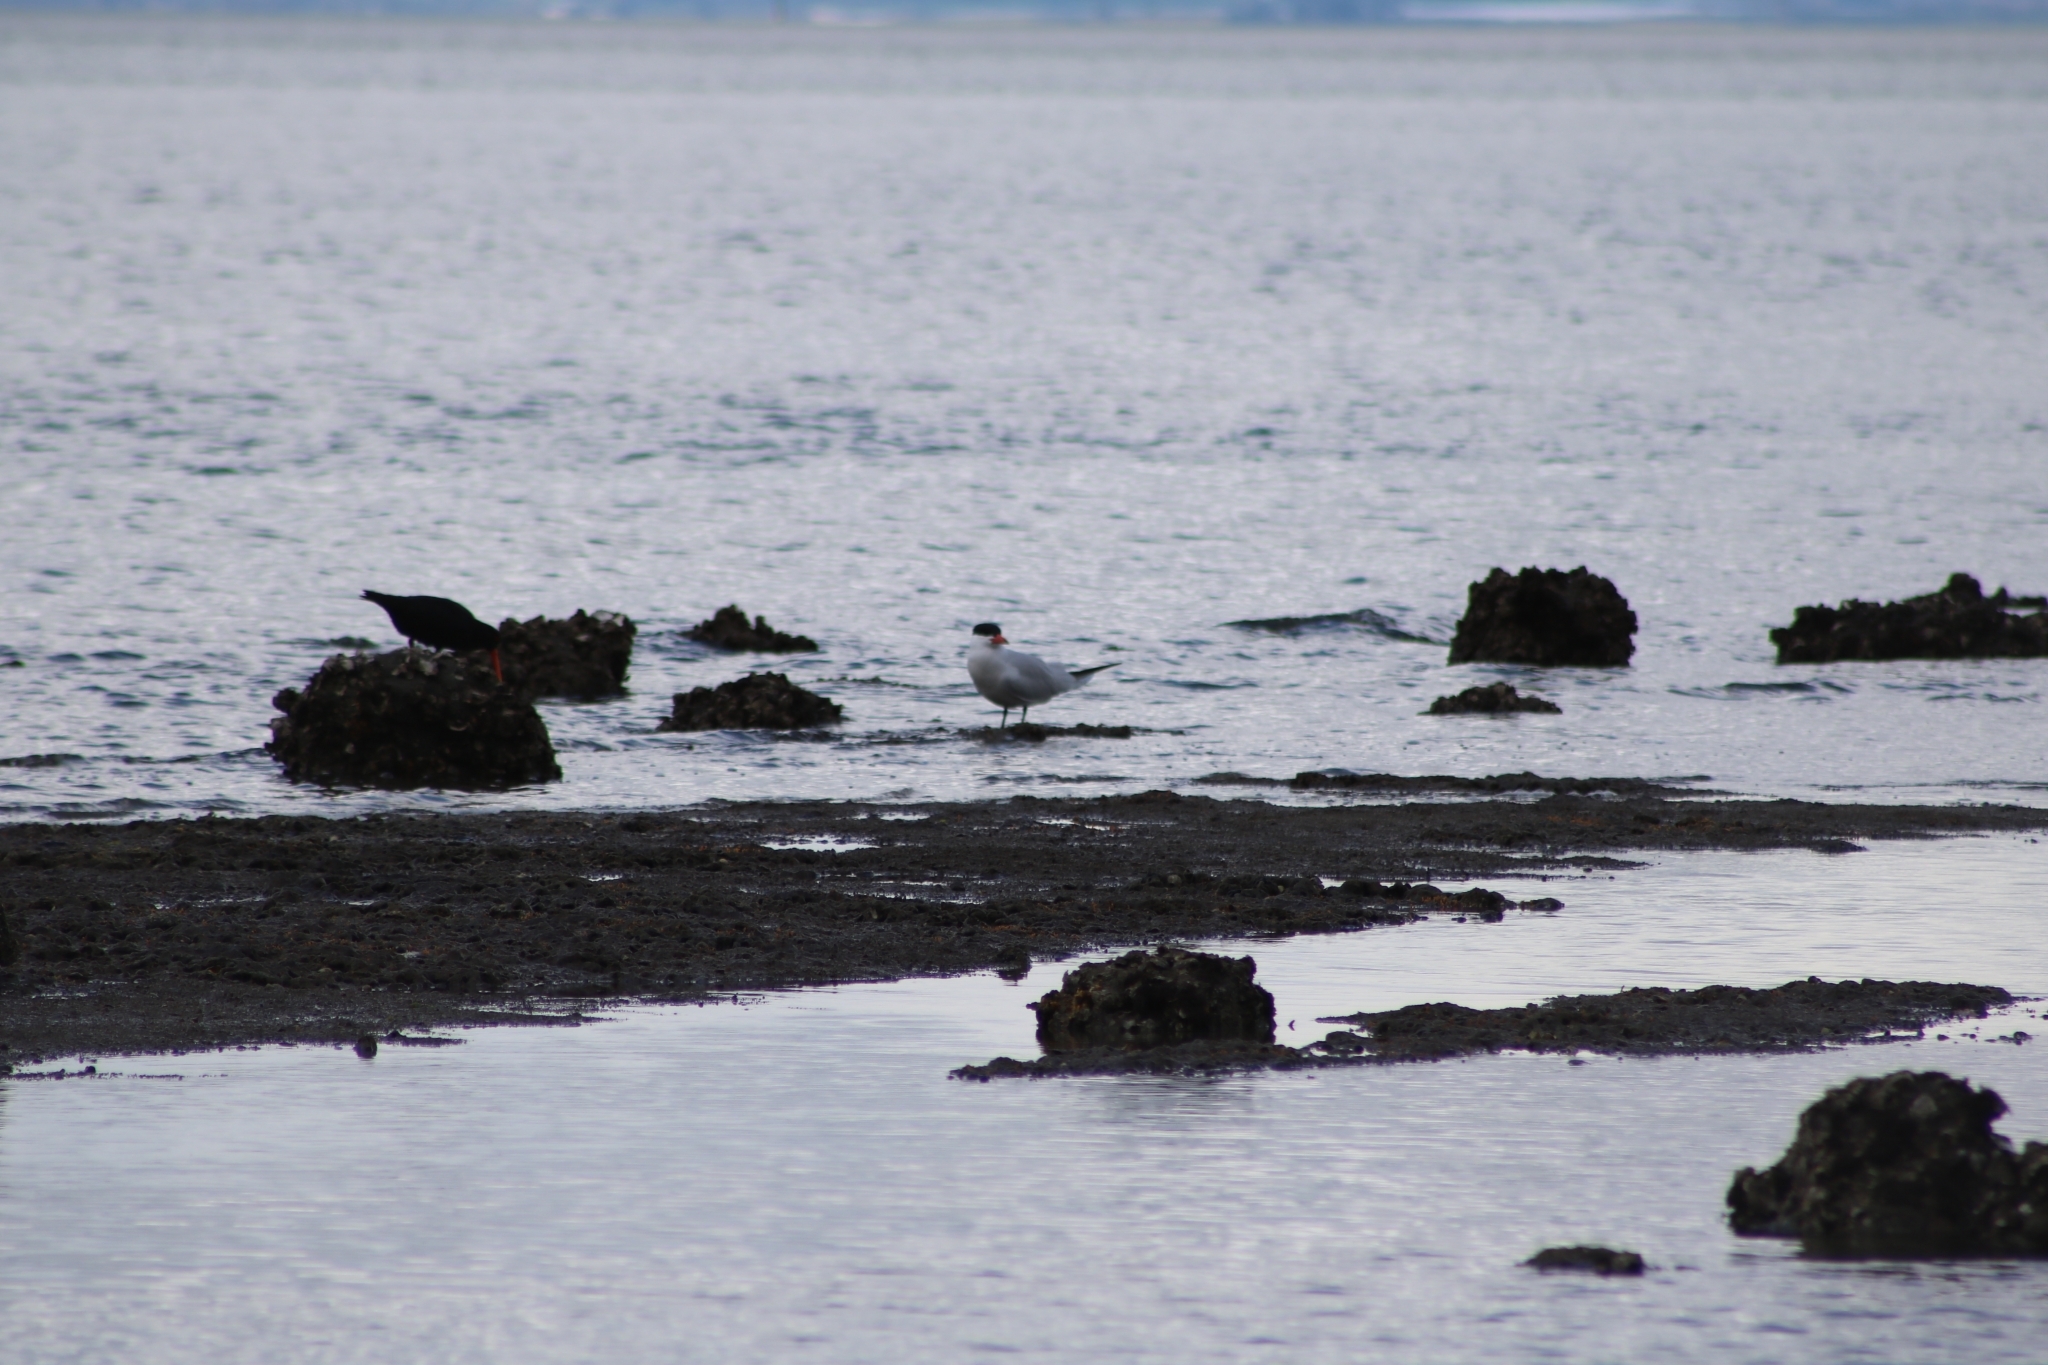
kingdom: Animalia
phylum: Chordata
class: Aves
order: Charadriiformes
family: Laridae
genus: Hydroprogne
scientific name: Hydroprogne caspia
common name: Caspian tern
